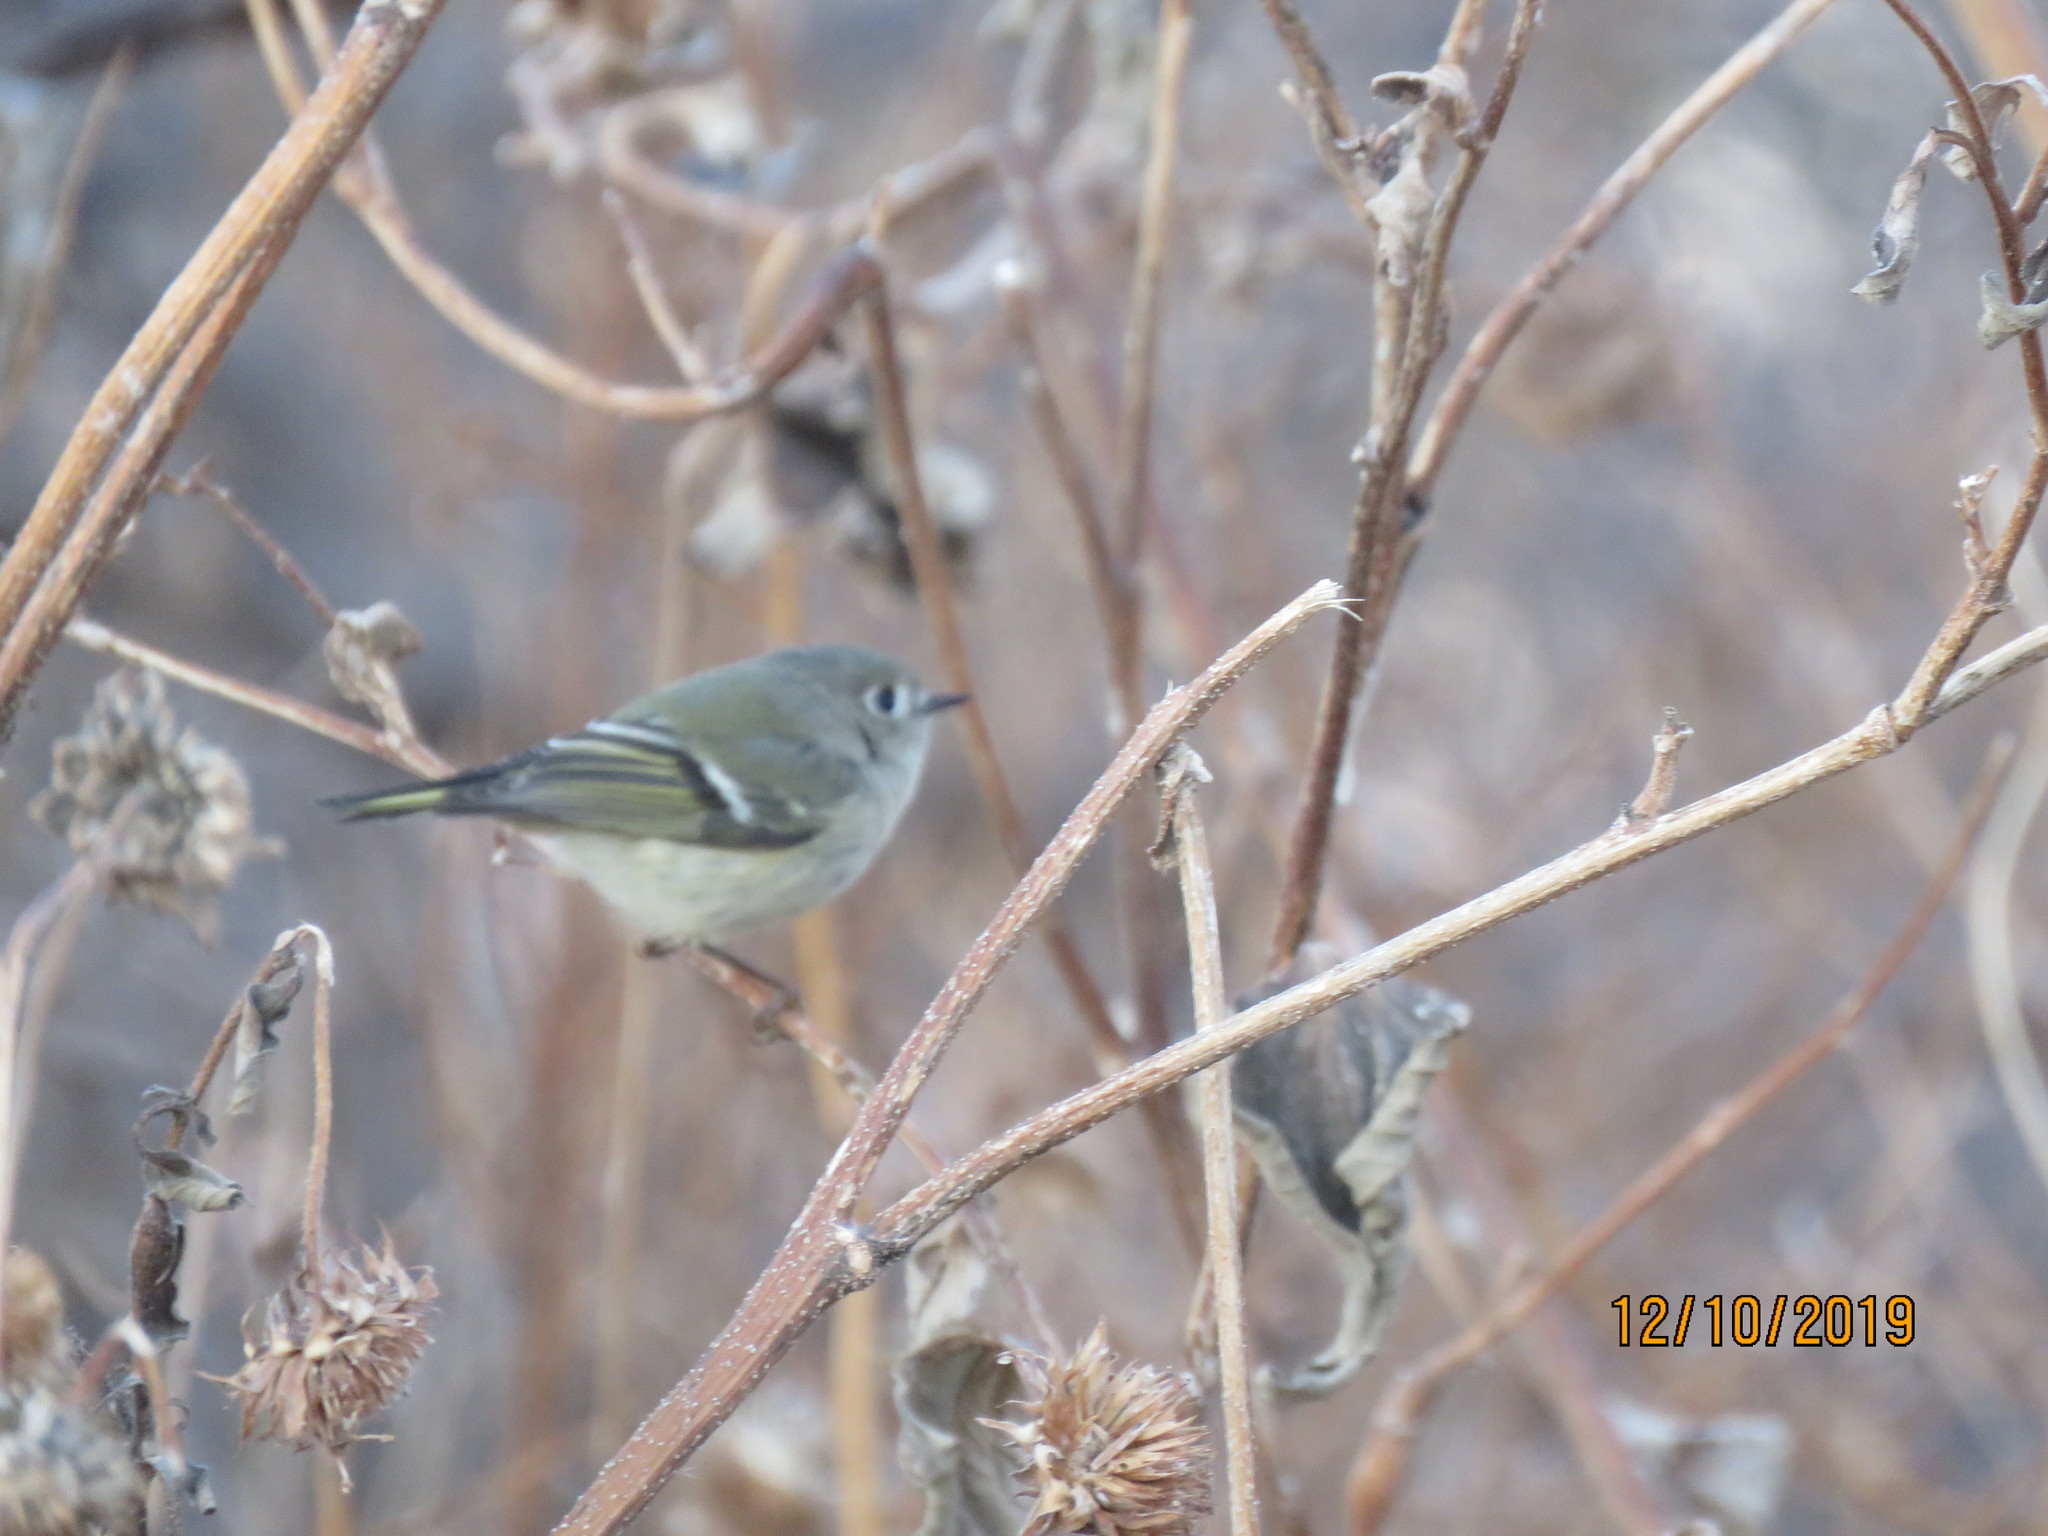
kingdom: Animalia
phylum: Chordata
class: Aves
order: Passeriformes
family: Regulidae
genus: Regulus
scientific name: Regulus calendula
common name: Ruby-crowned kinglet
